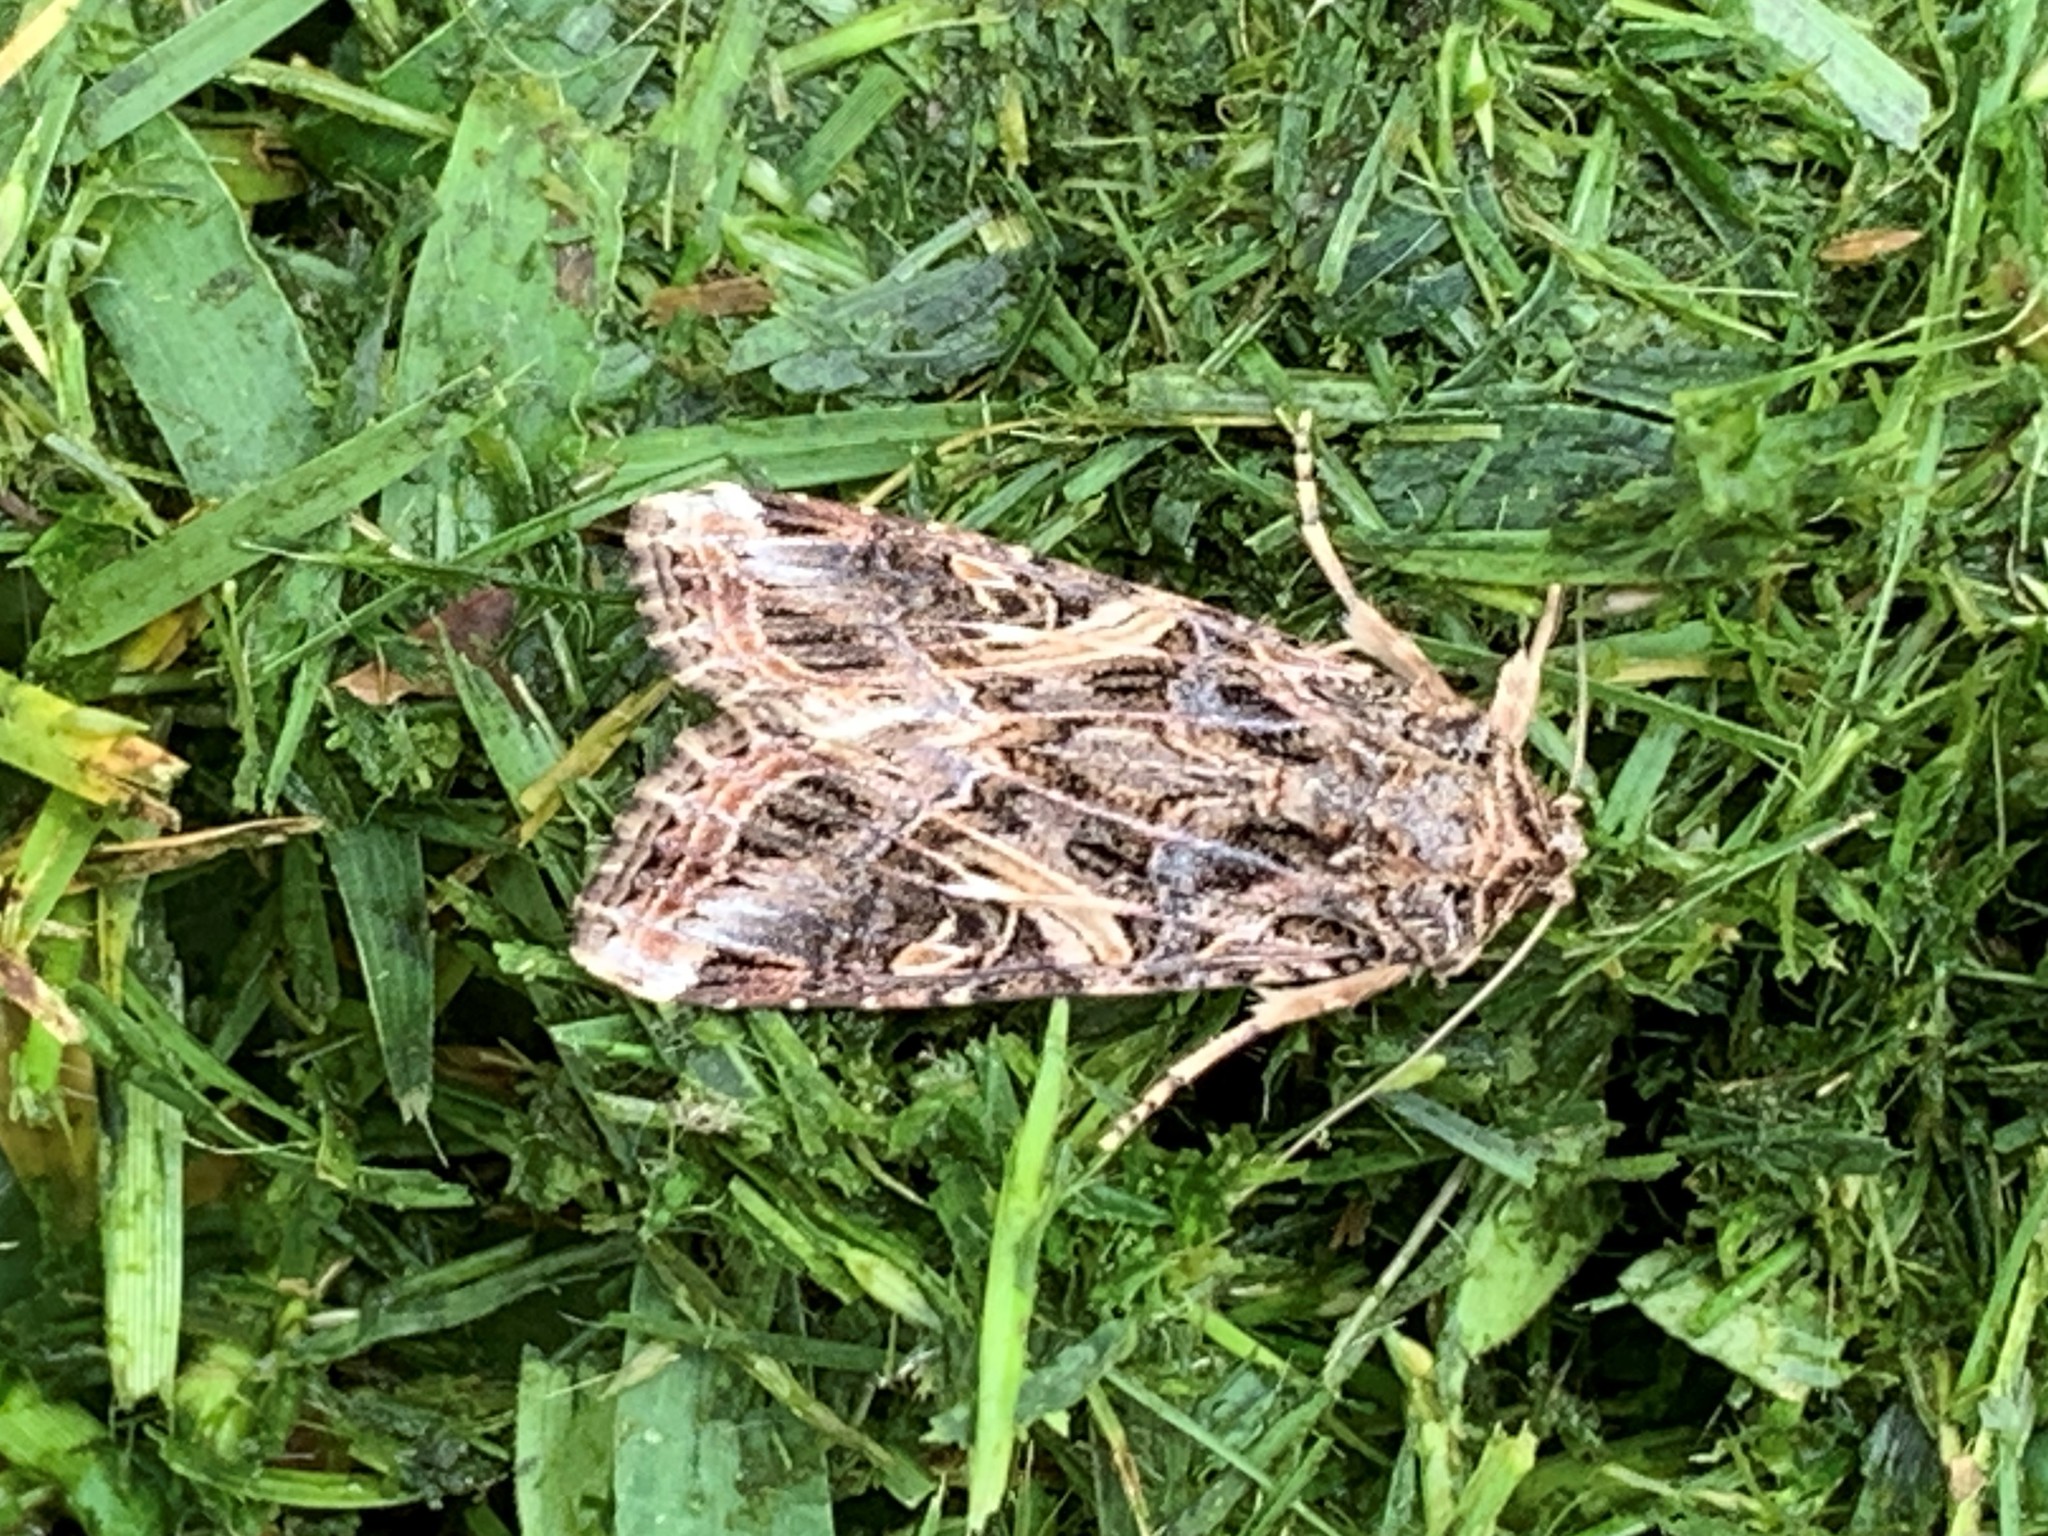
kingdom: Animalia
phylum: Arthropoda
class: Insecta
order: Lepidoptera
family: Noctuidae
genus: Spodoptera
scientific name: Spodoptera ornithogalli
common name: Yellow-striped armyworm
